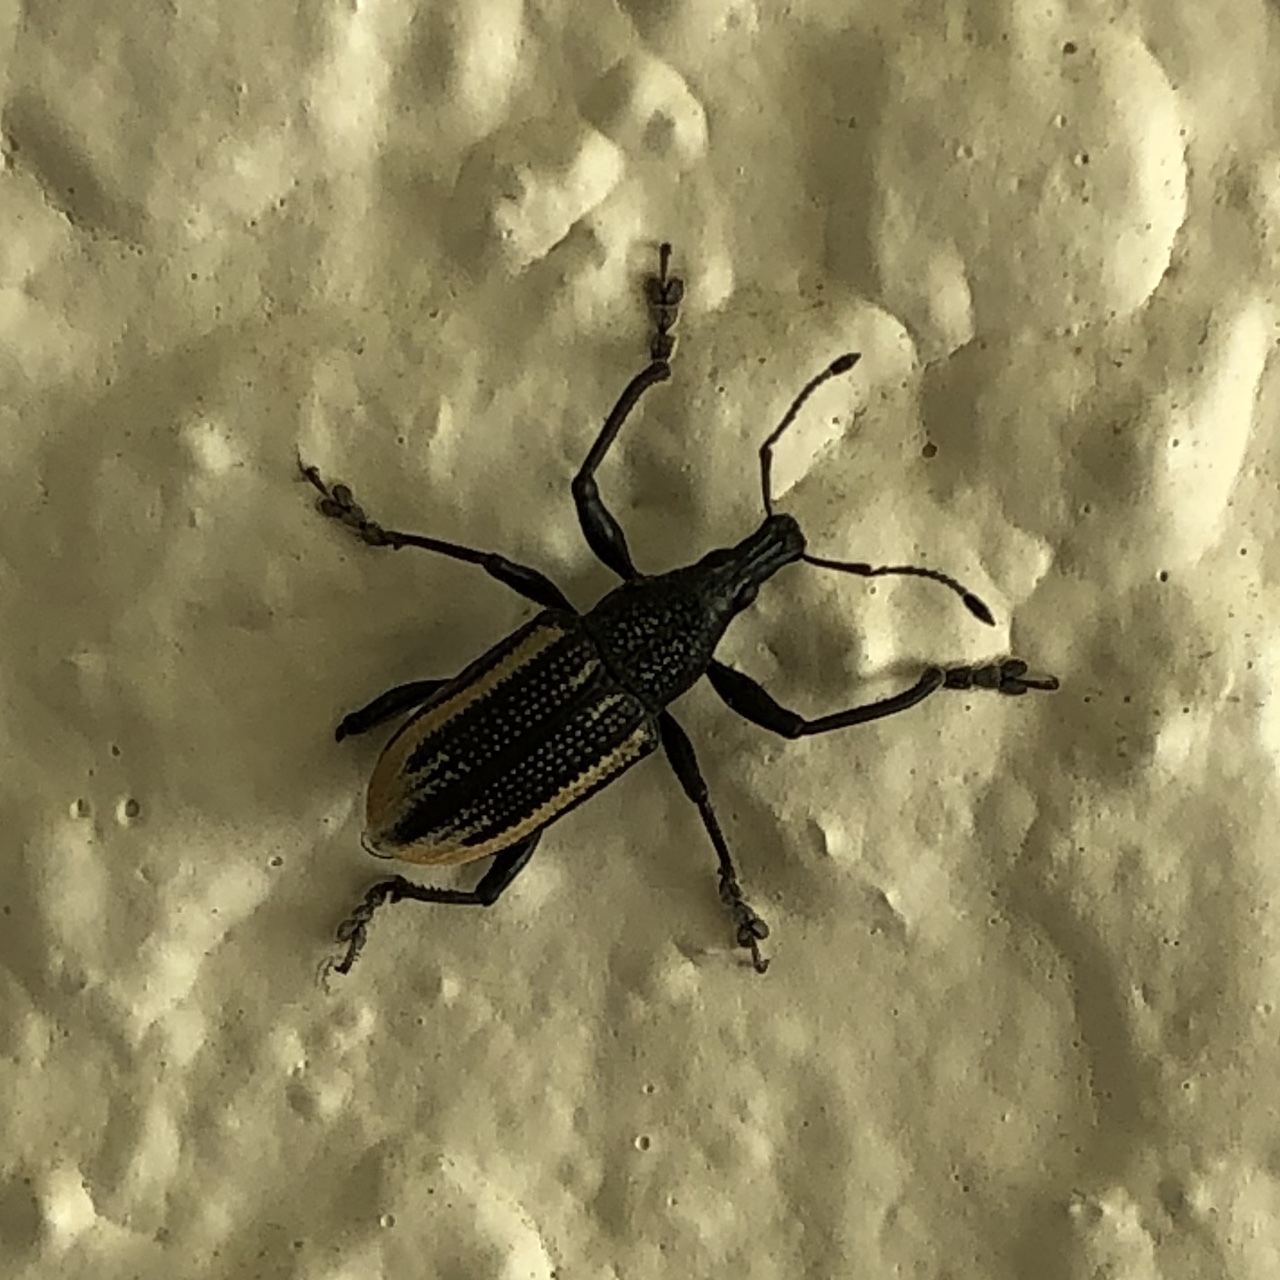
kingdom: Animalia
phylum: Arthropoda
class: Insecta
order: Coleoptera
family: Curculionidae
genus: Diaprepes
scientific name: Diaprepes abbreviatus
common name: Root weevil
